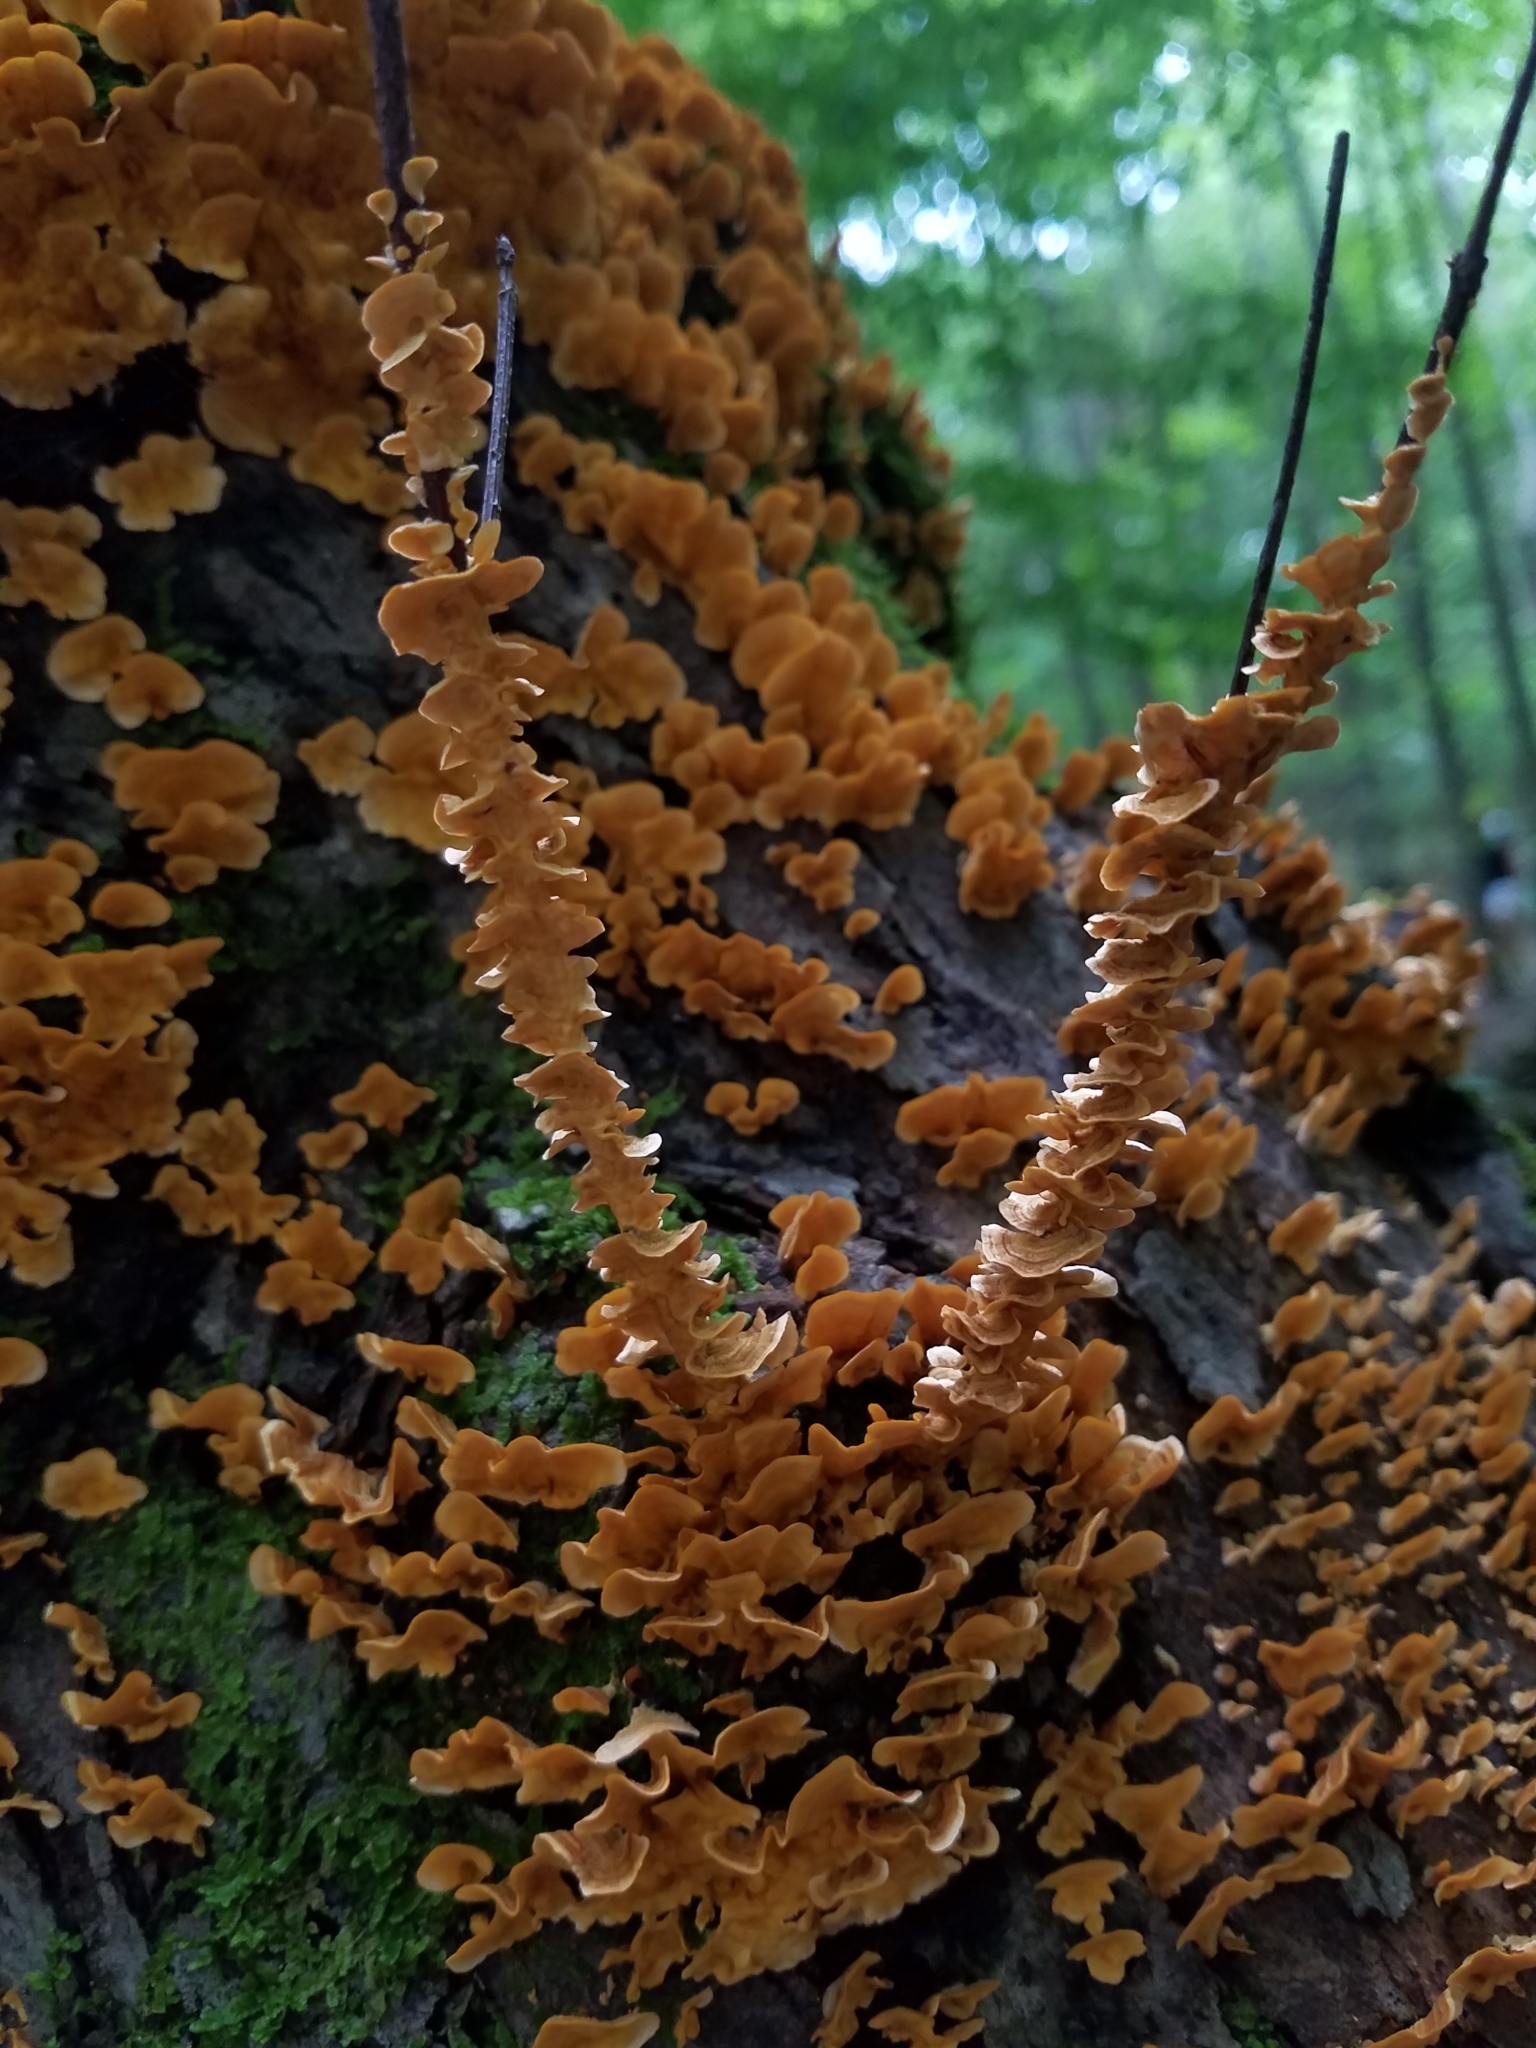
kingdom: Fungi
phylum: Basidiomycota
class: Agaricomycetes
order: Russulales
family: Stereaceae
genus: Stereum
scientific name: Stereum complicatum
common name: Crowded parchment
